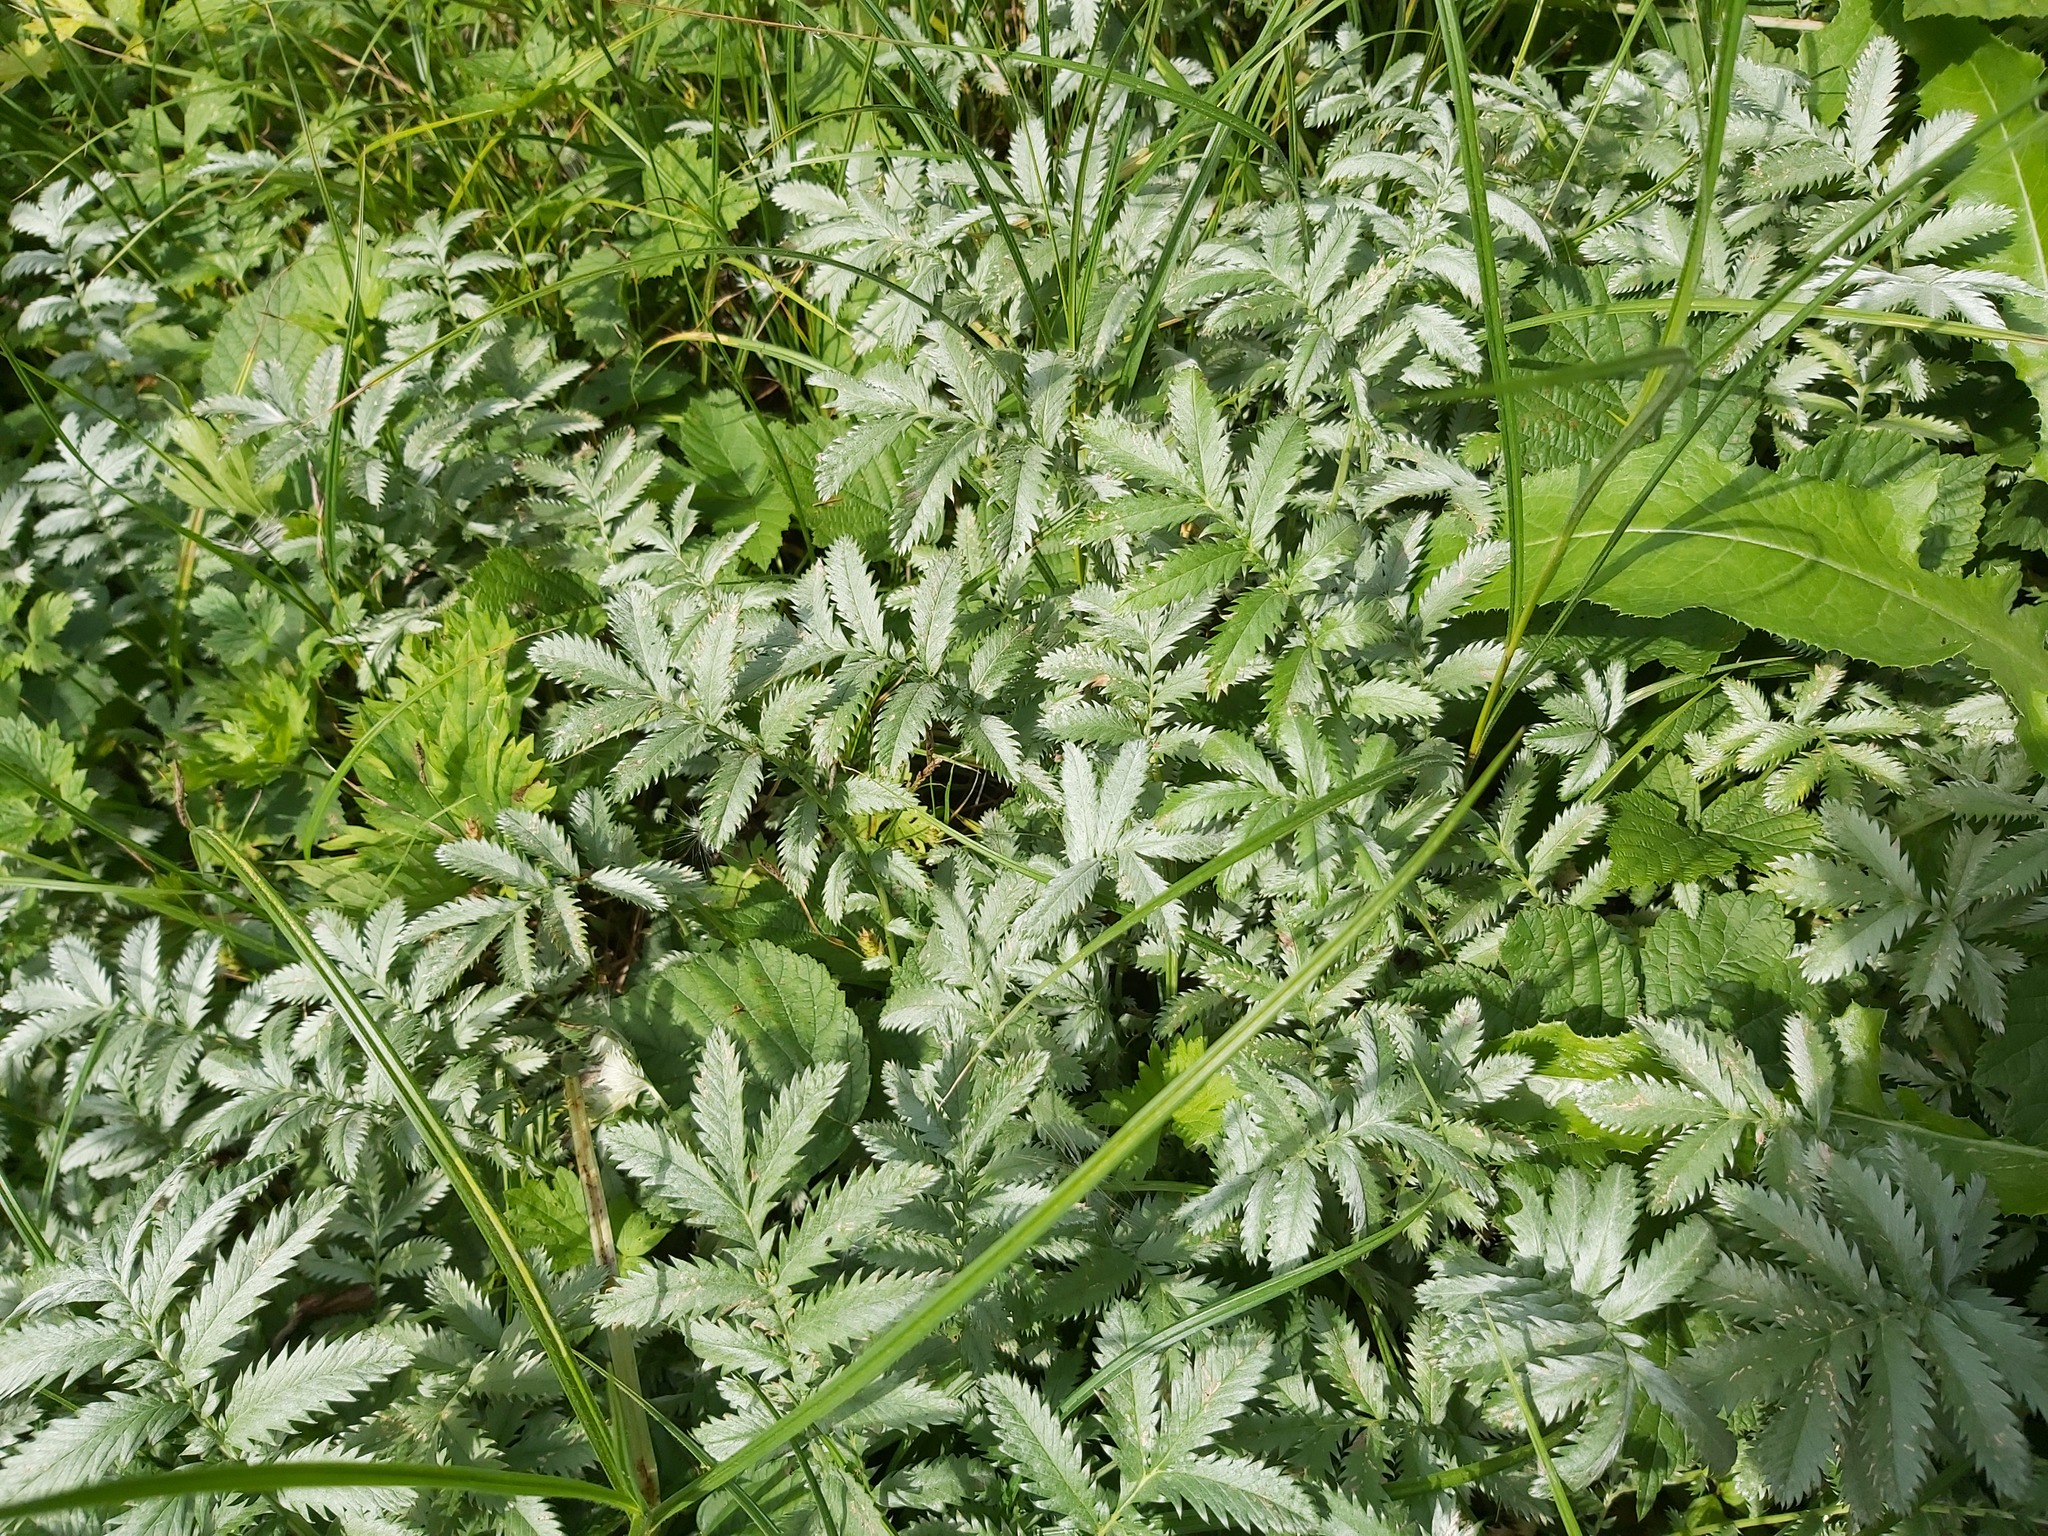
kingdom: Plantae
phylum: Tracheophyta
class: Magnoliopsida
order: Rosales
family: Rosaceae
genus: Argentina
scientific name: Argentina anserina
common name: Common silverweed
